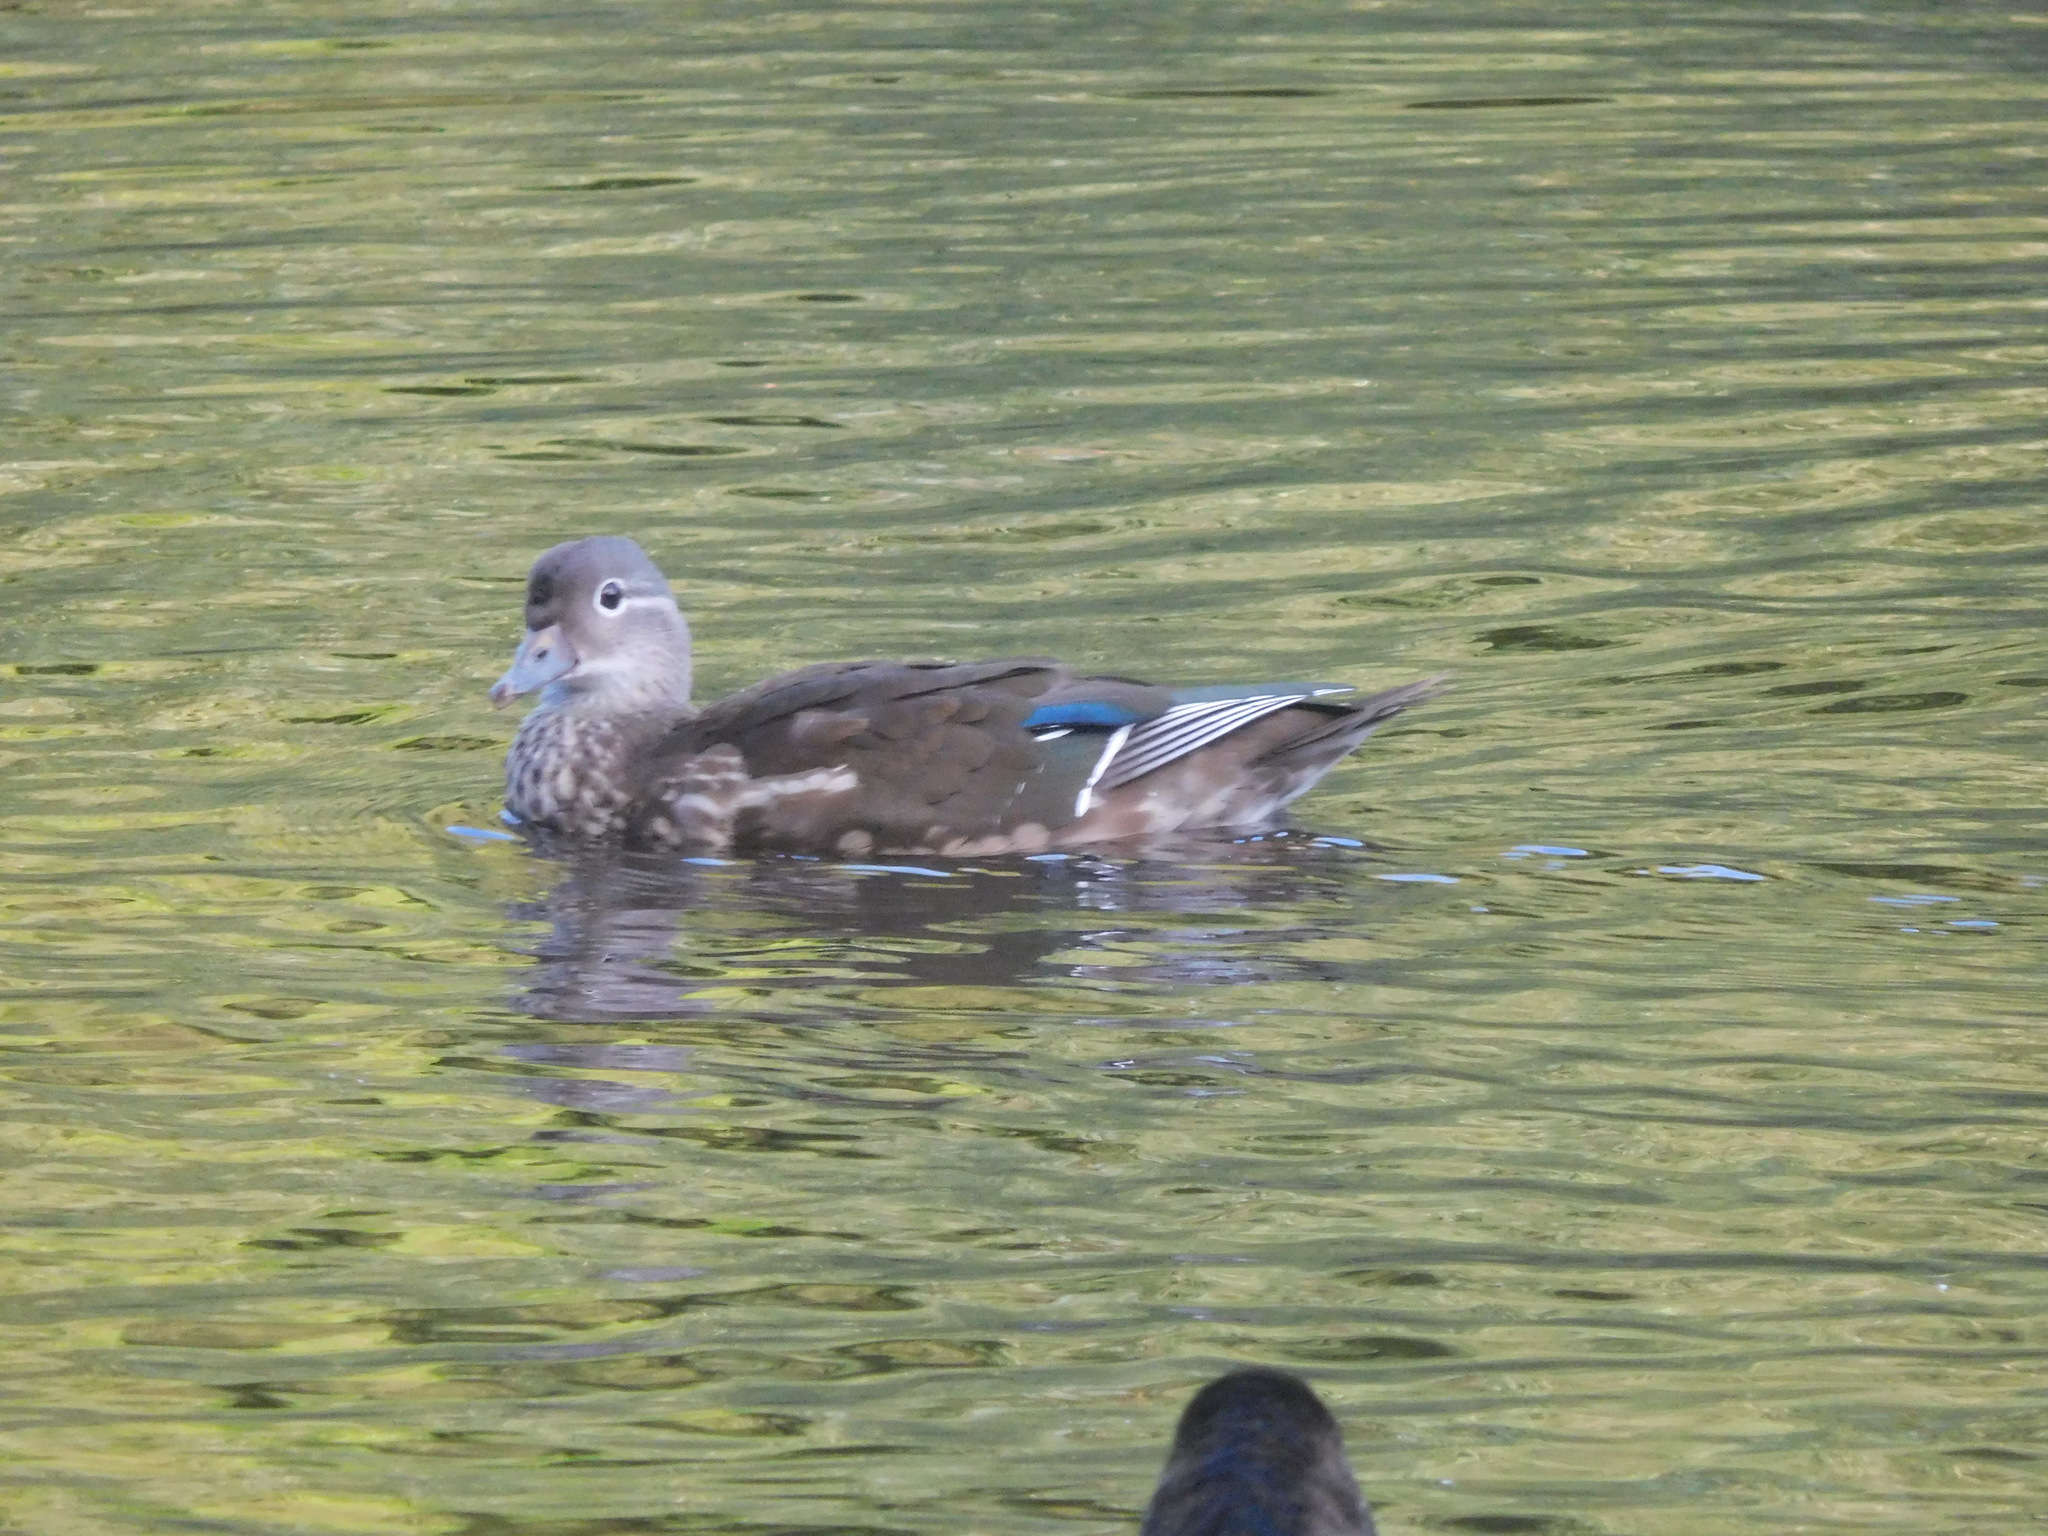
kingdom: Animalia
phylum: Chordata
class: Aves
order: Anseriformes
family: Anatidae
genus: Aix
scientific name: Aix galericulata
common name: Mandarin duck
